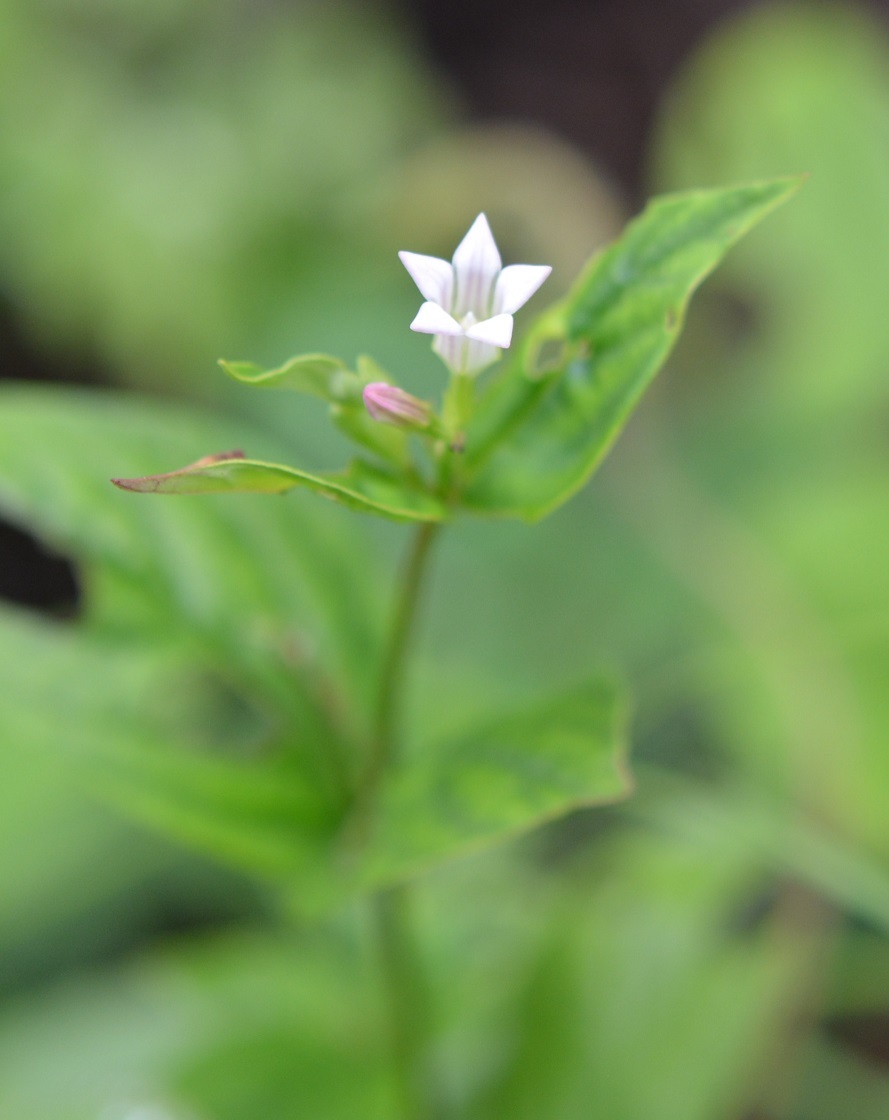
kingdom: Plantae
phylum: Tracheophyta
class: Magnoliopsida
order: Gentianales
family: Loganiaceae
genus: Spigelia
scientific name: Spigelia humboldtiana
